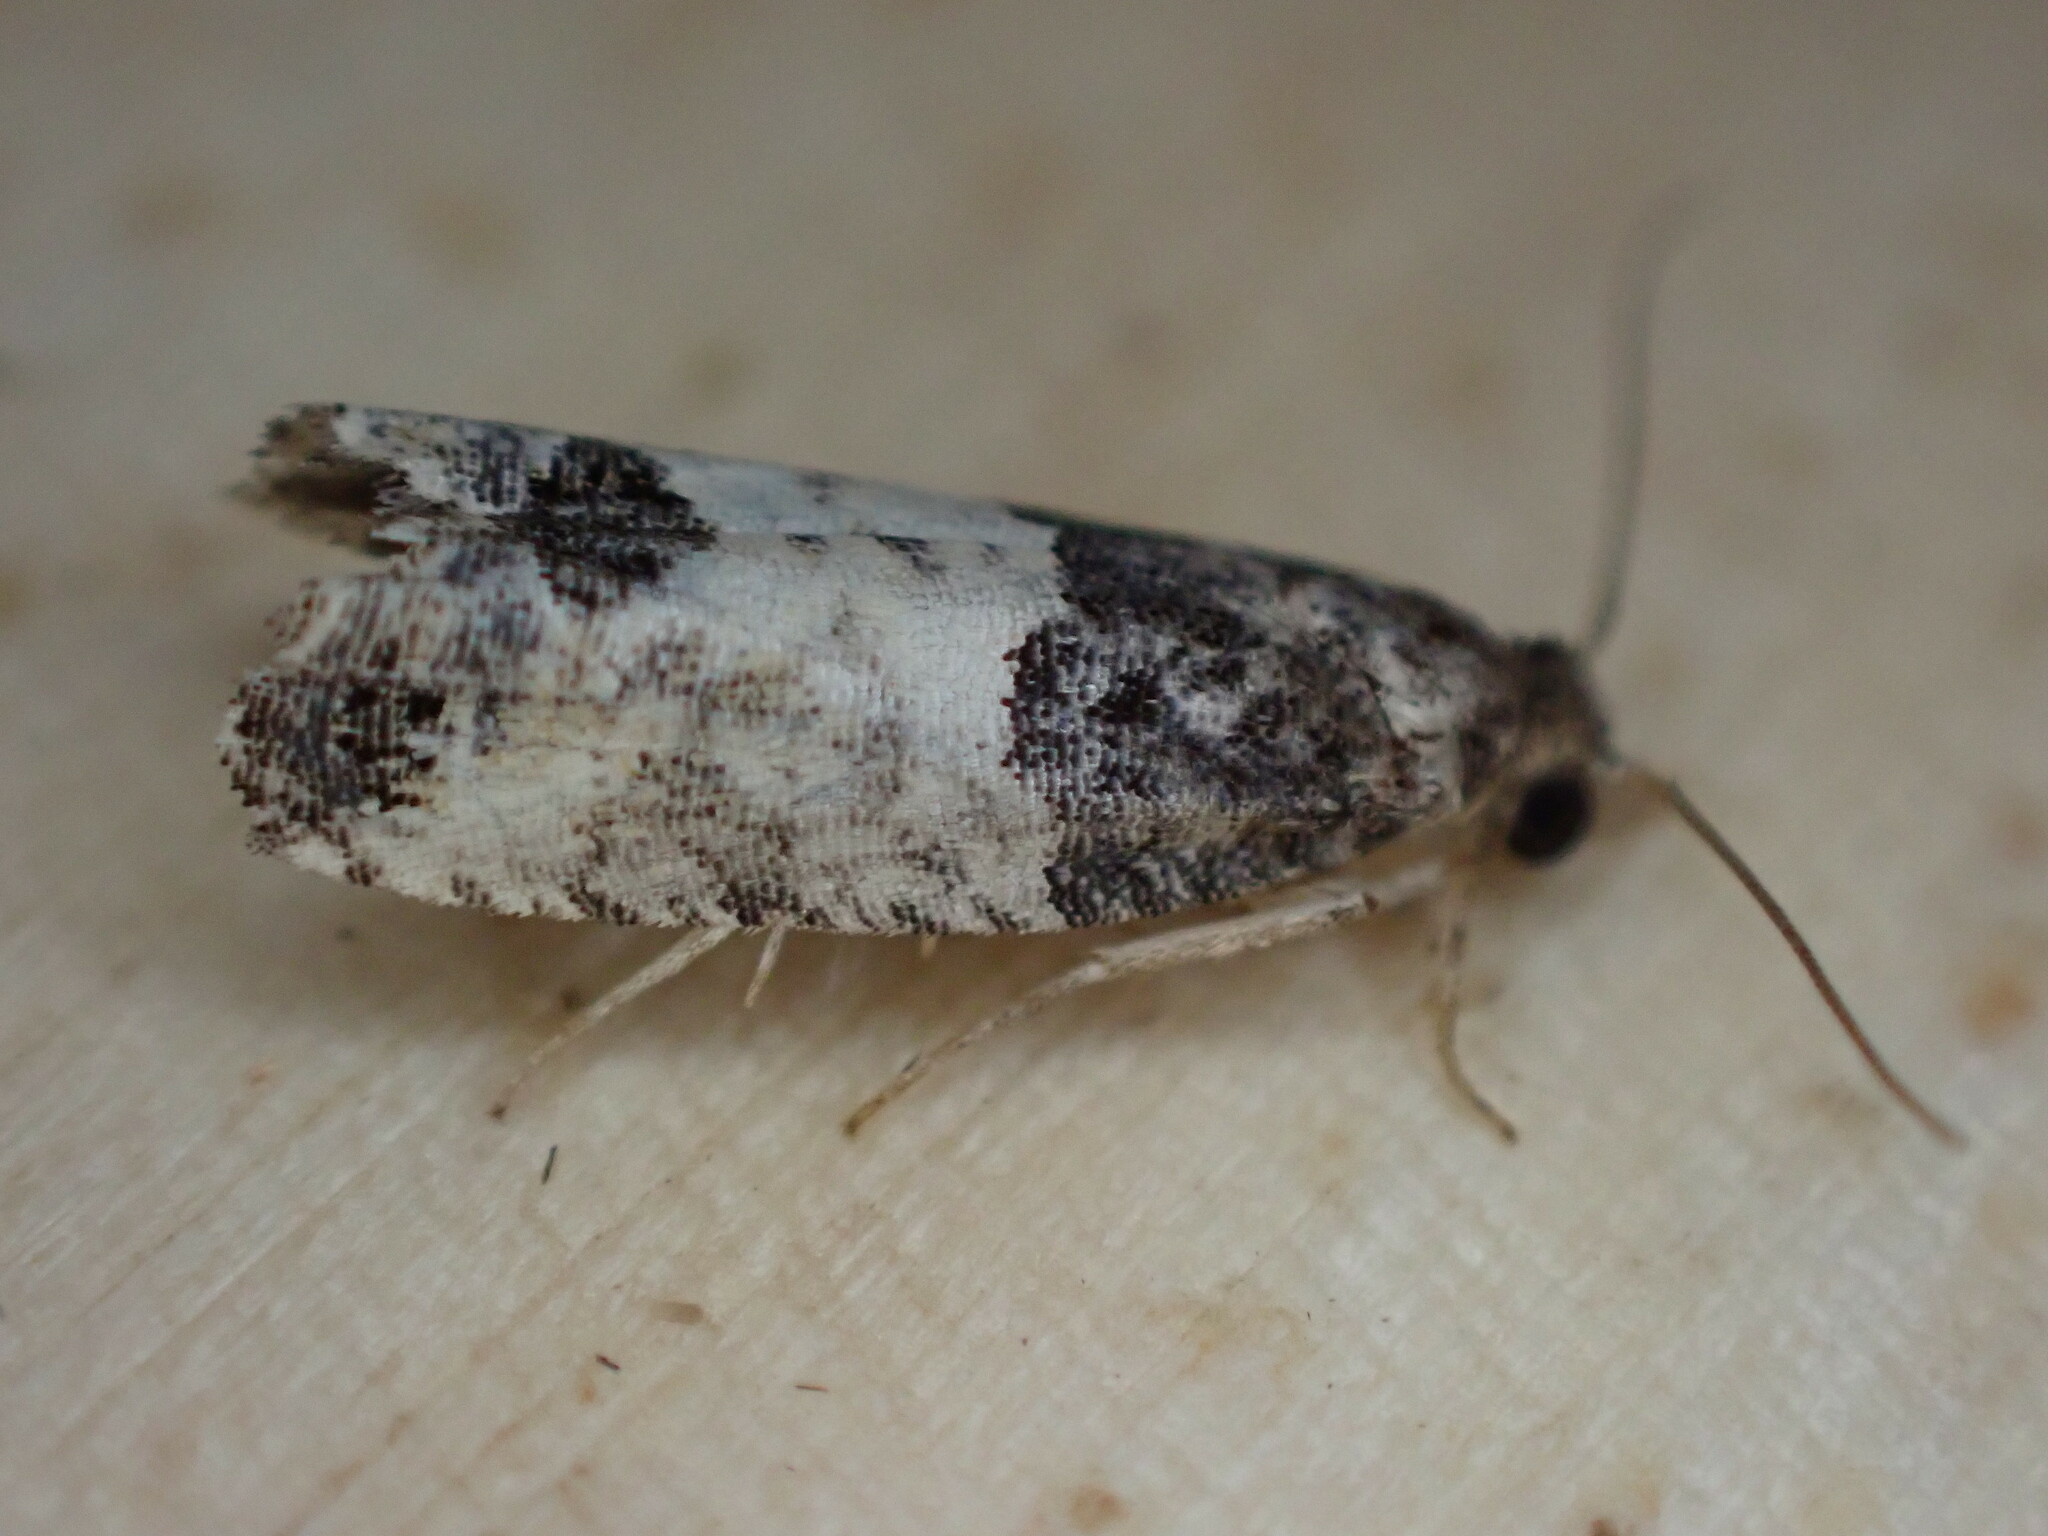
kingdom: Animalia
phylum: Arthropoda
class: Insecta
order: Lepidoptera
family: Tortricidae
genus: Spilonota
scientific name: Spilonota ocellana
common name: Bud moth
